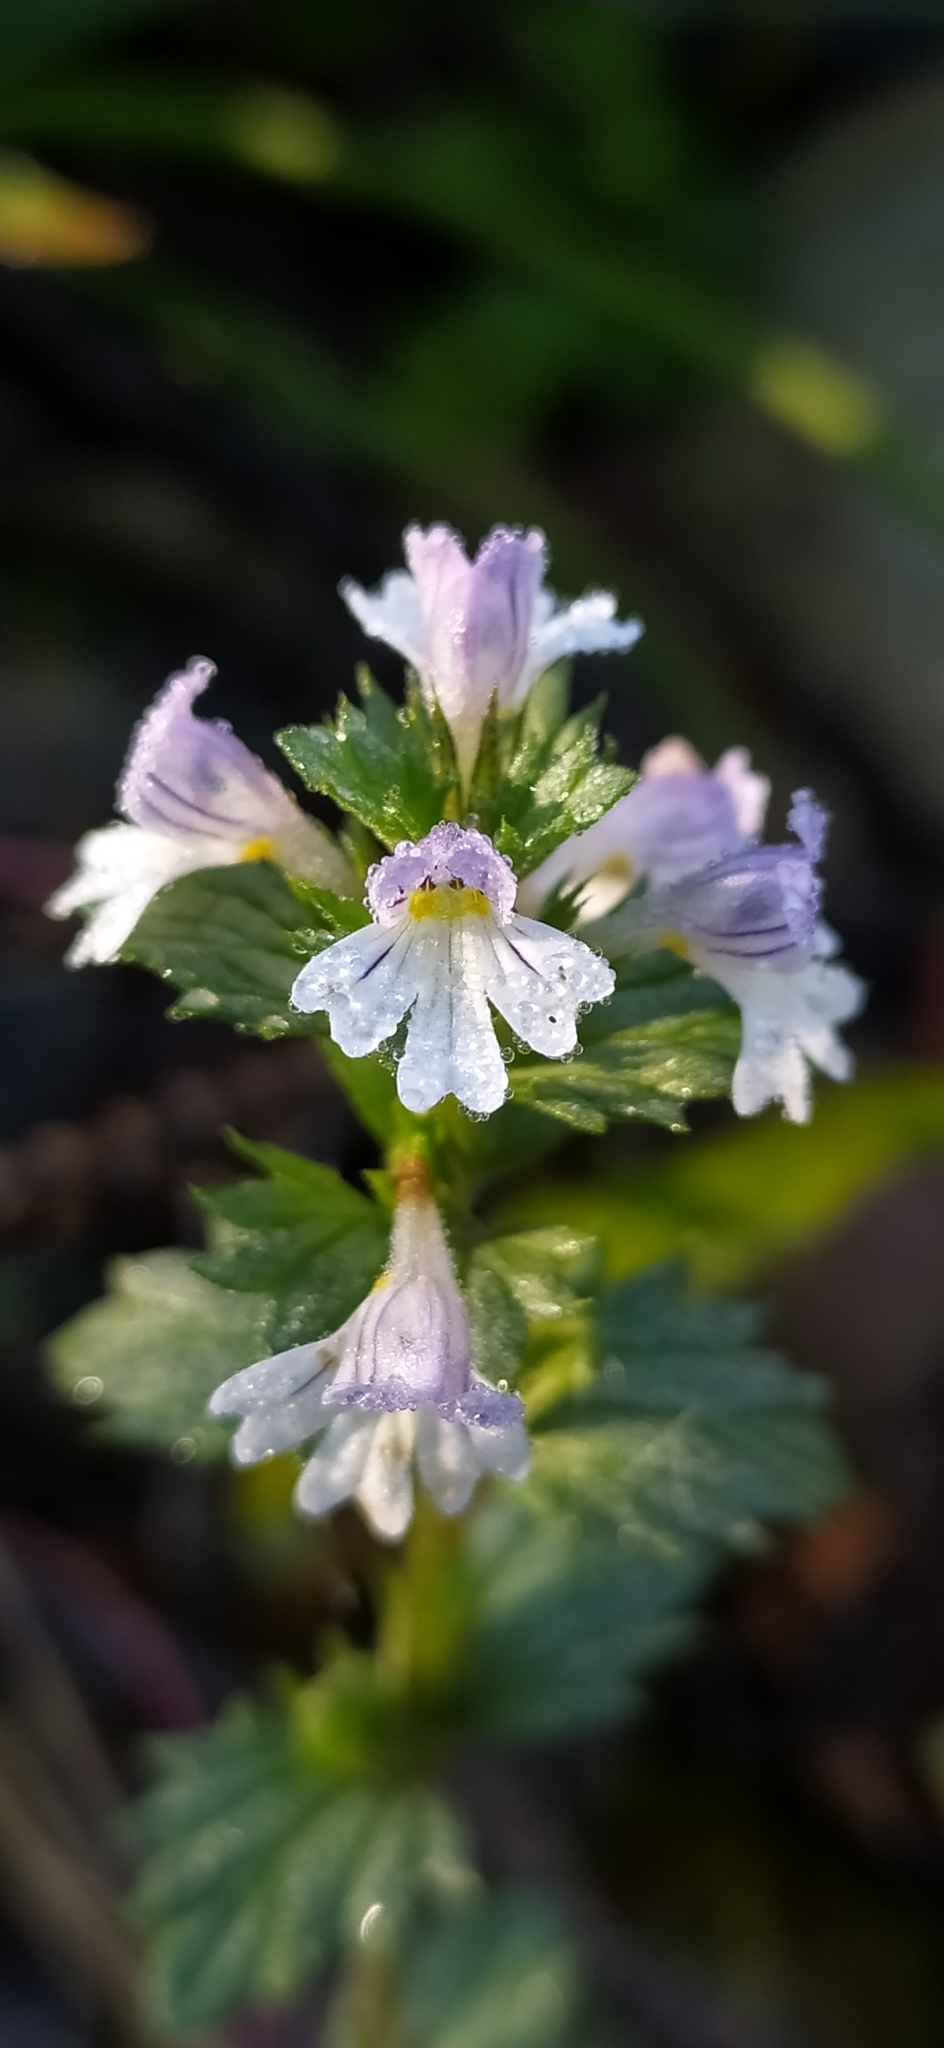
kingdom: Plantae
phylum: Tracheophyta
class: Magnoliopsida
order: Lamiales
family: Orobanchaceae
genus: Euphrasia
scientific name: Euphrasia stricta
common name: Drug eyebright
